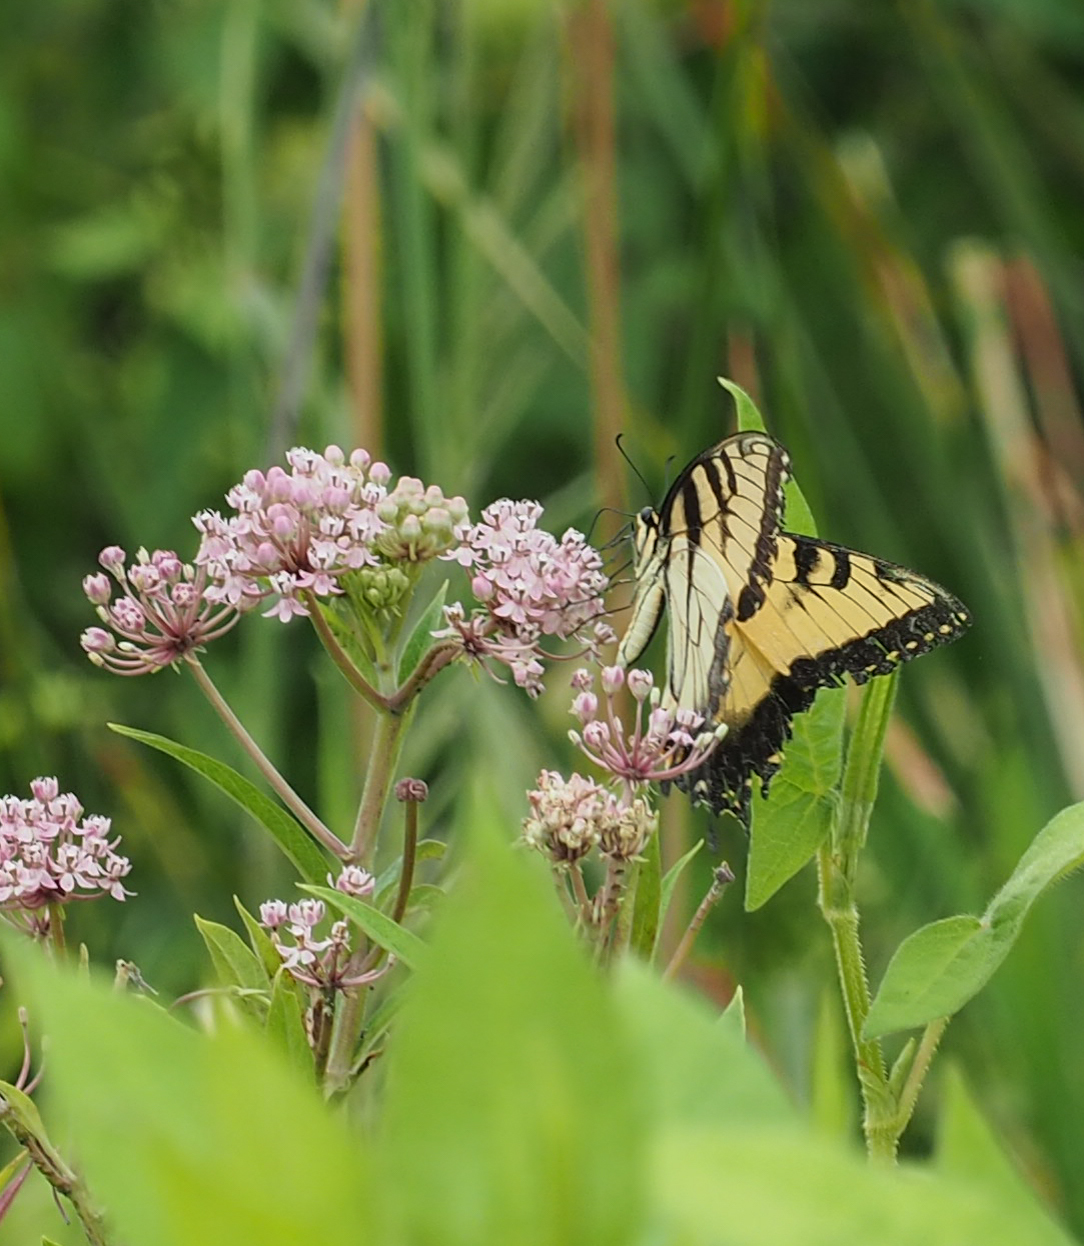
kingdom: Animalia
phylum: Arthropoda
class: Insecta
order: Lepidoptera
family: Papilionidae
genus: Papilio
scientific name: Papilio glaucus
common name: Tiger swallowtail
